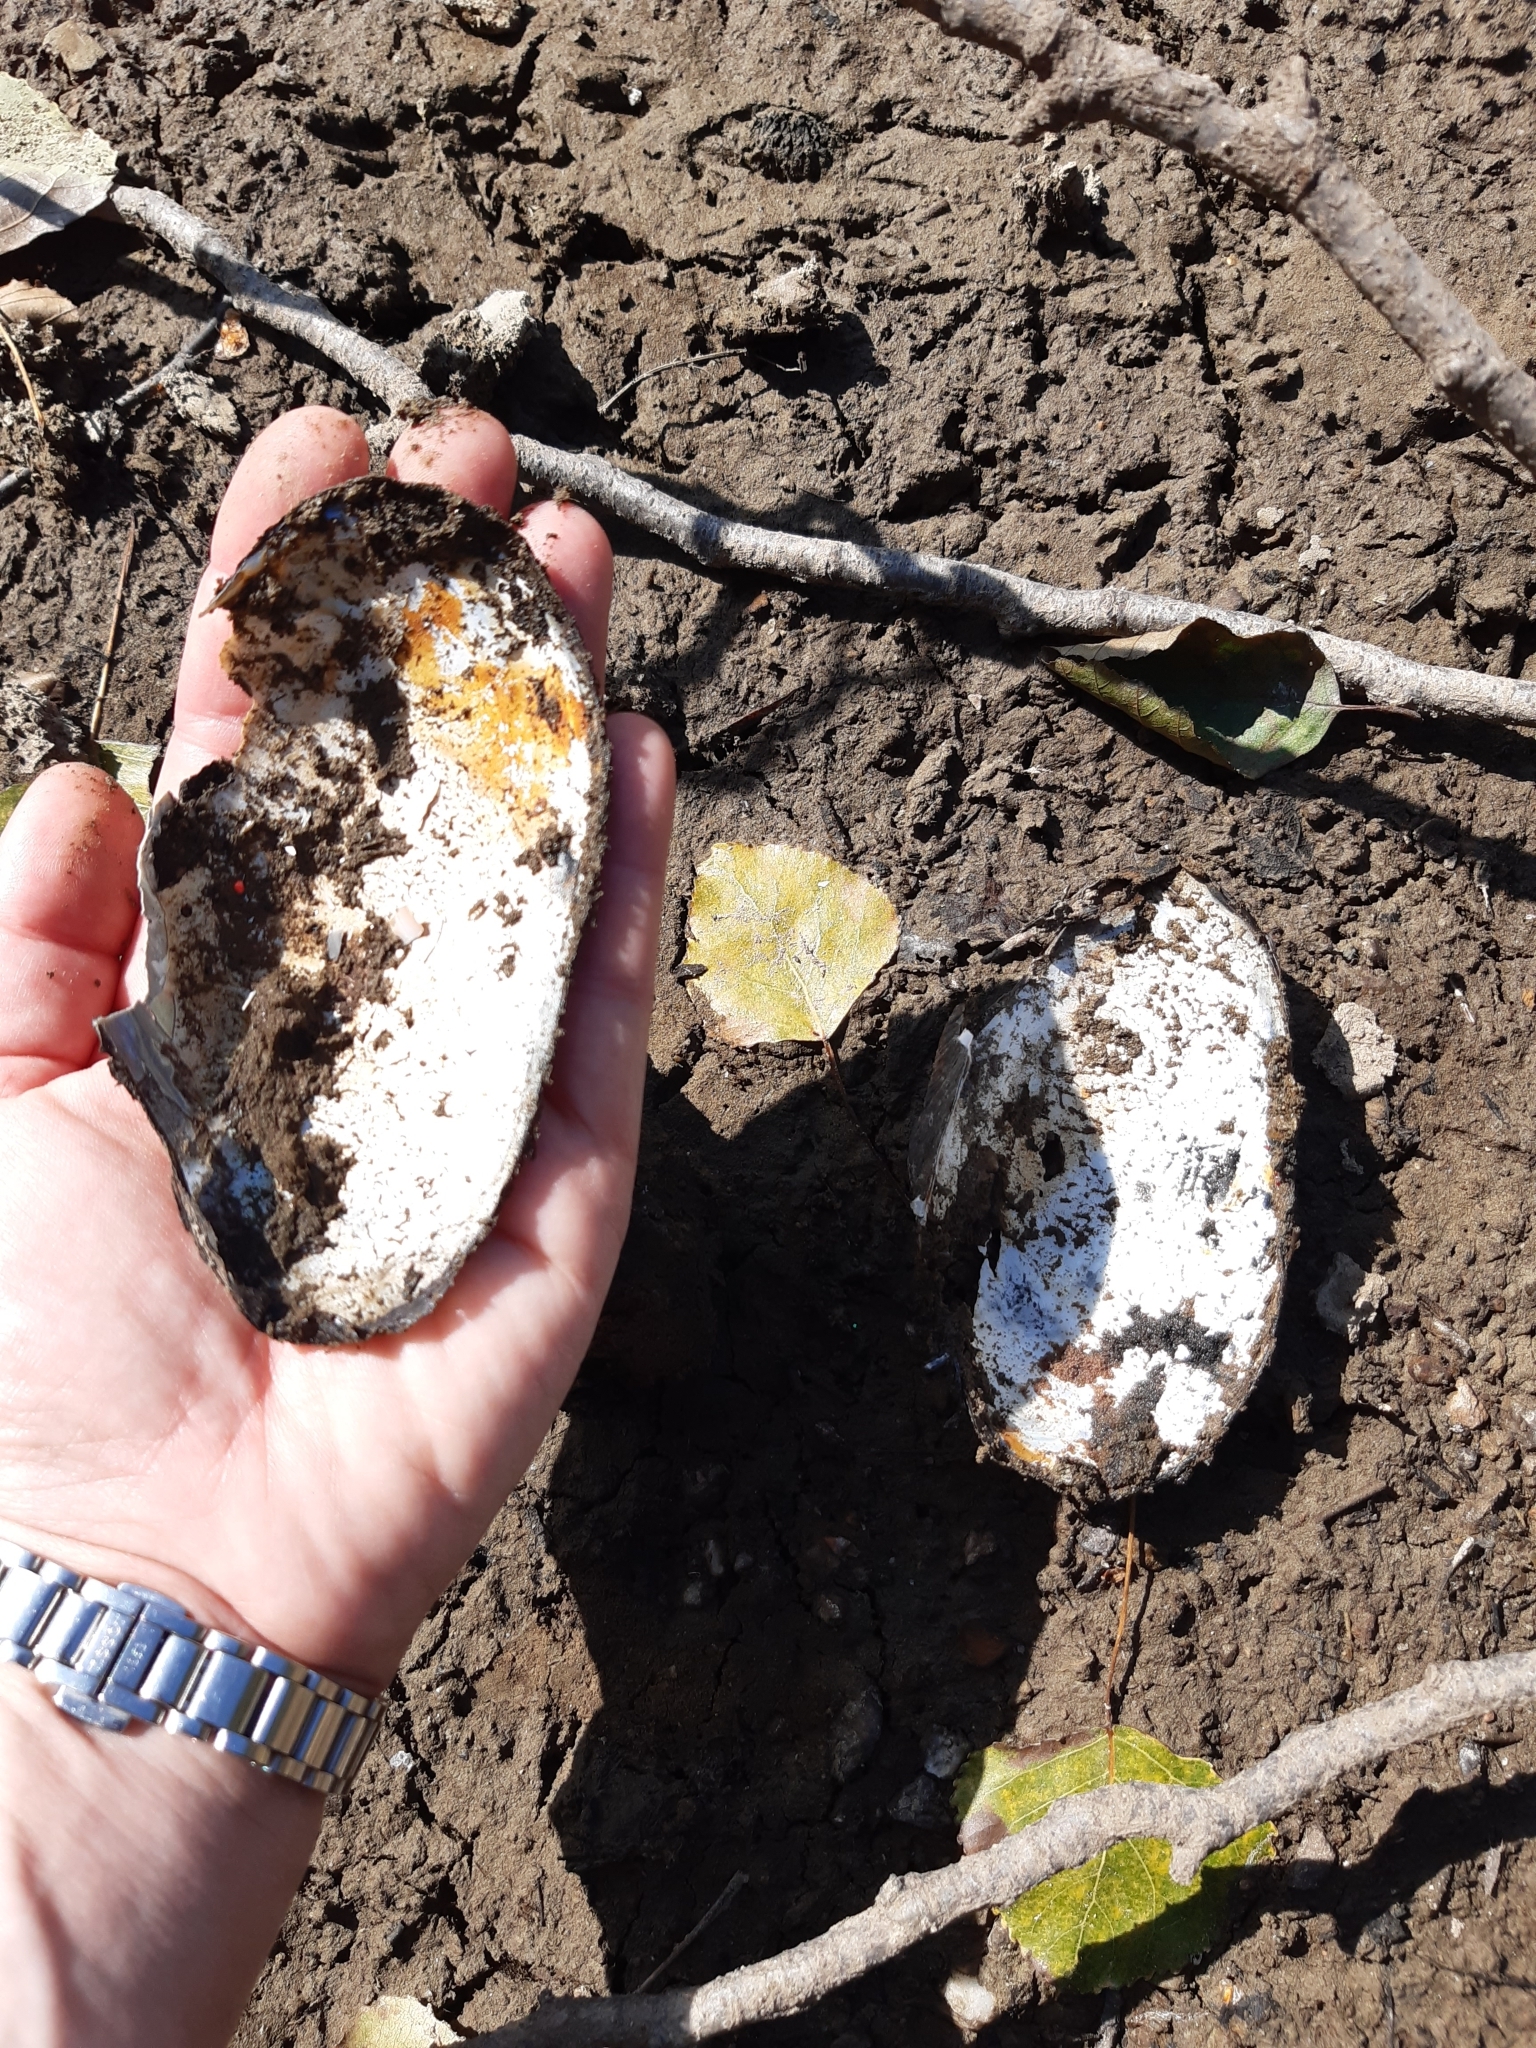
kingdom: Animalia
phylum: Mollusca
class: Bivalvia
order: Unionida
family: Unionidae
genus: Anodonta
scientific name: Anodonta anatina
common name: Duck mussel
